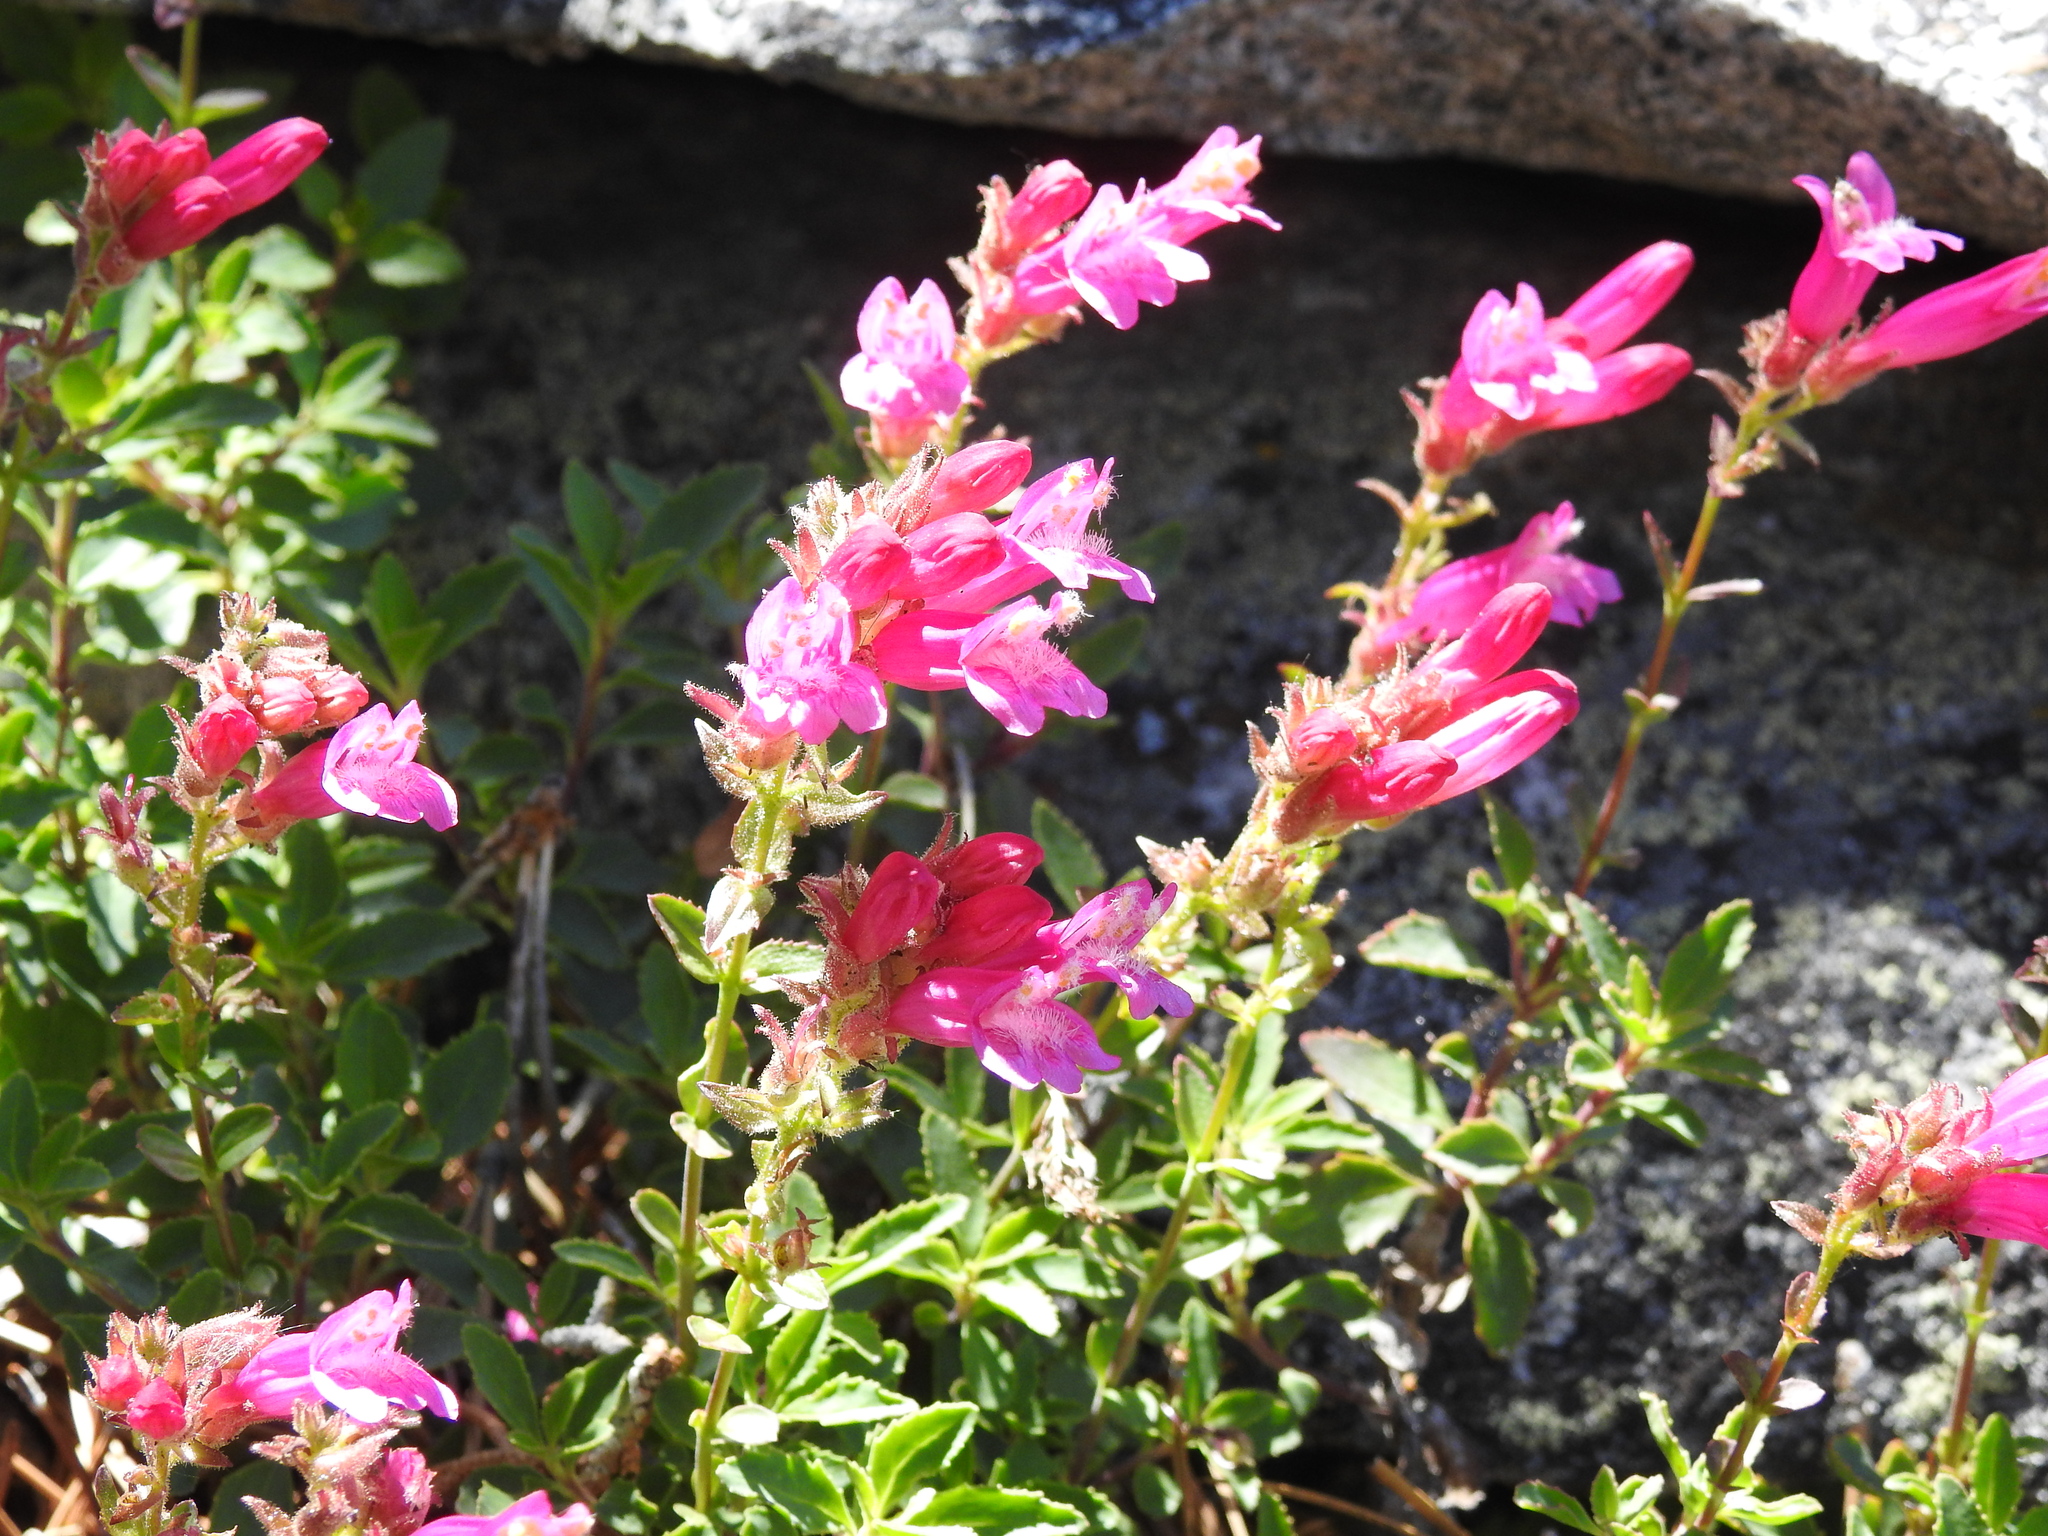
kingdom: Plantae
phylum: Tracheophyta
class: Magnoliopsida
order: Lamiales
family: Plantaginaceae
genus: Penstemon
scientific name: Penstemon newberryi
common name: Mountain-pride
